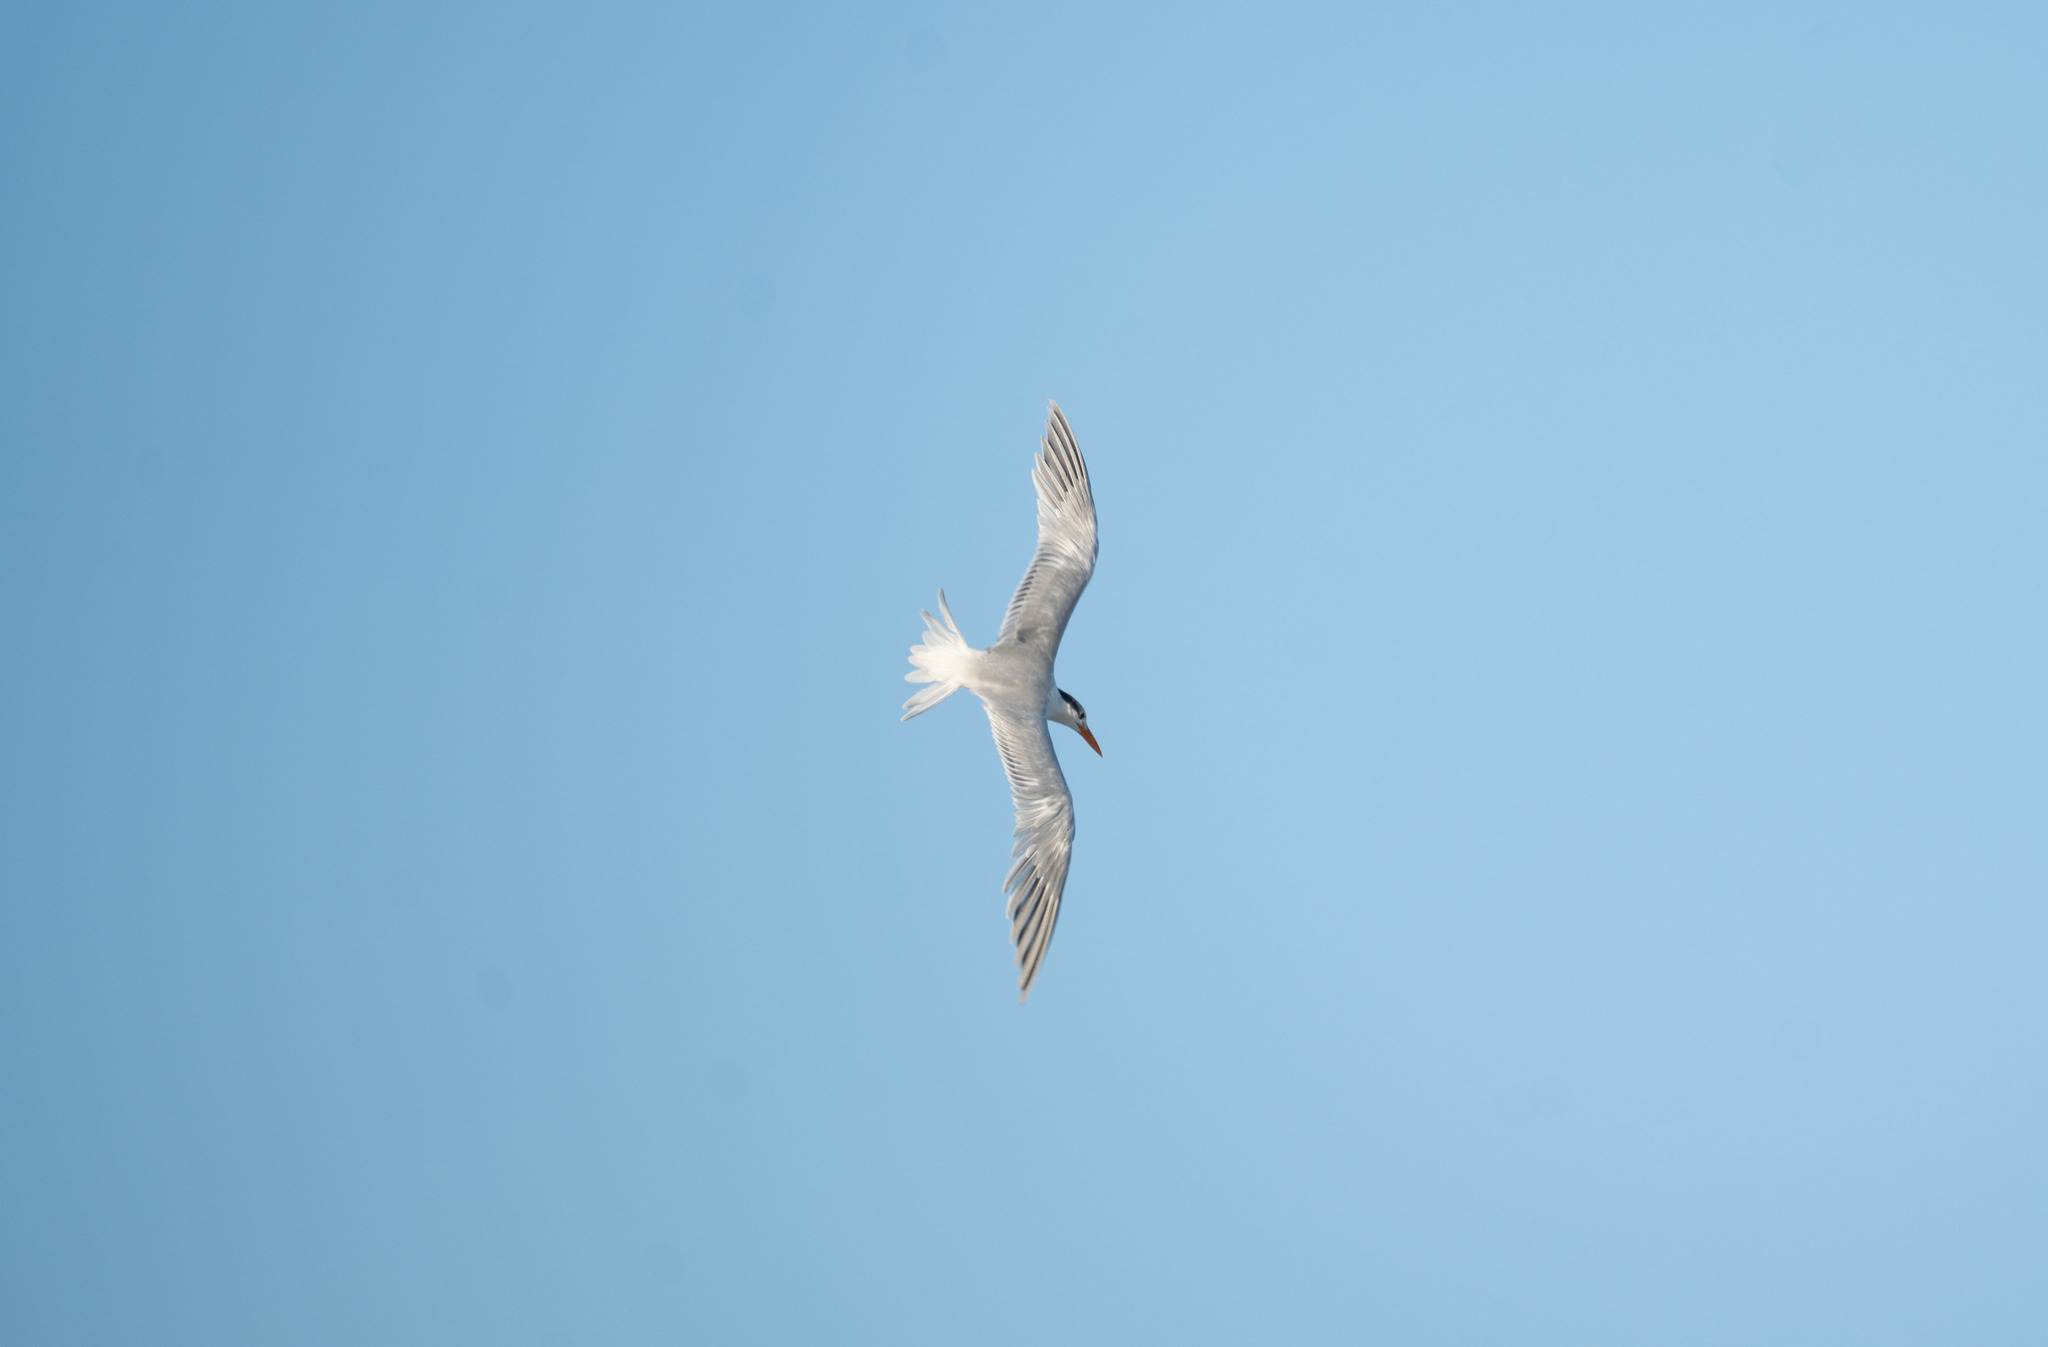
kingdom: Animalia
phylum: Chordata
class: Aves
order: Charadriiformes
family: Laridae
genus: Thalasseus
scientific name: Thalasseus maximus
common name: Royal tern
